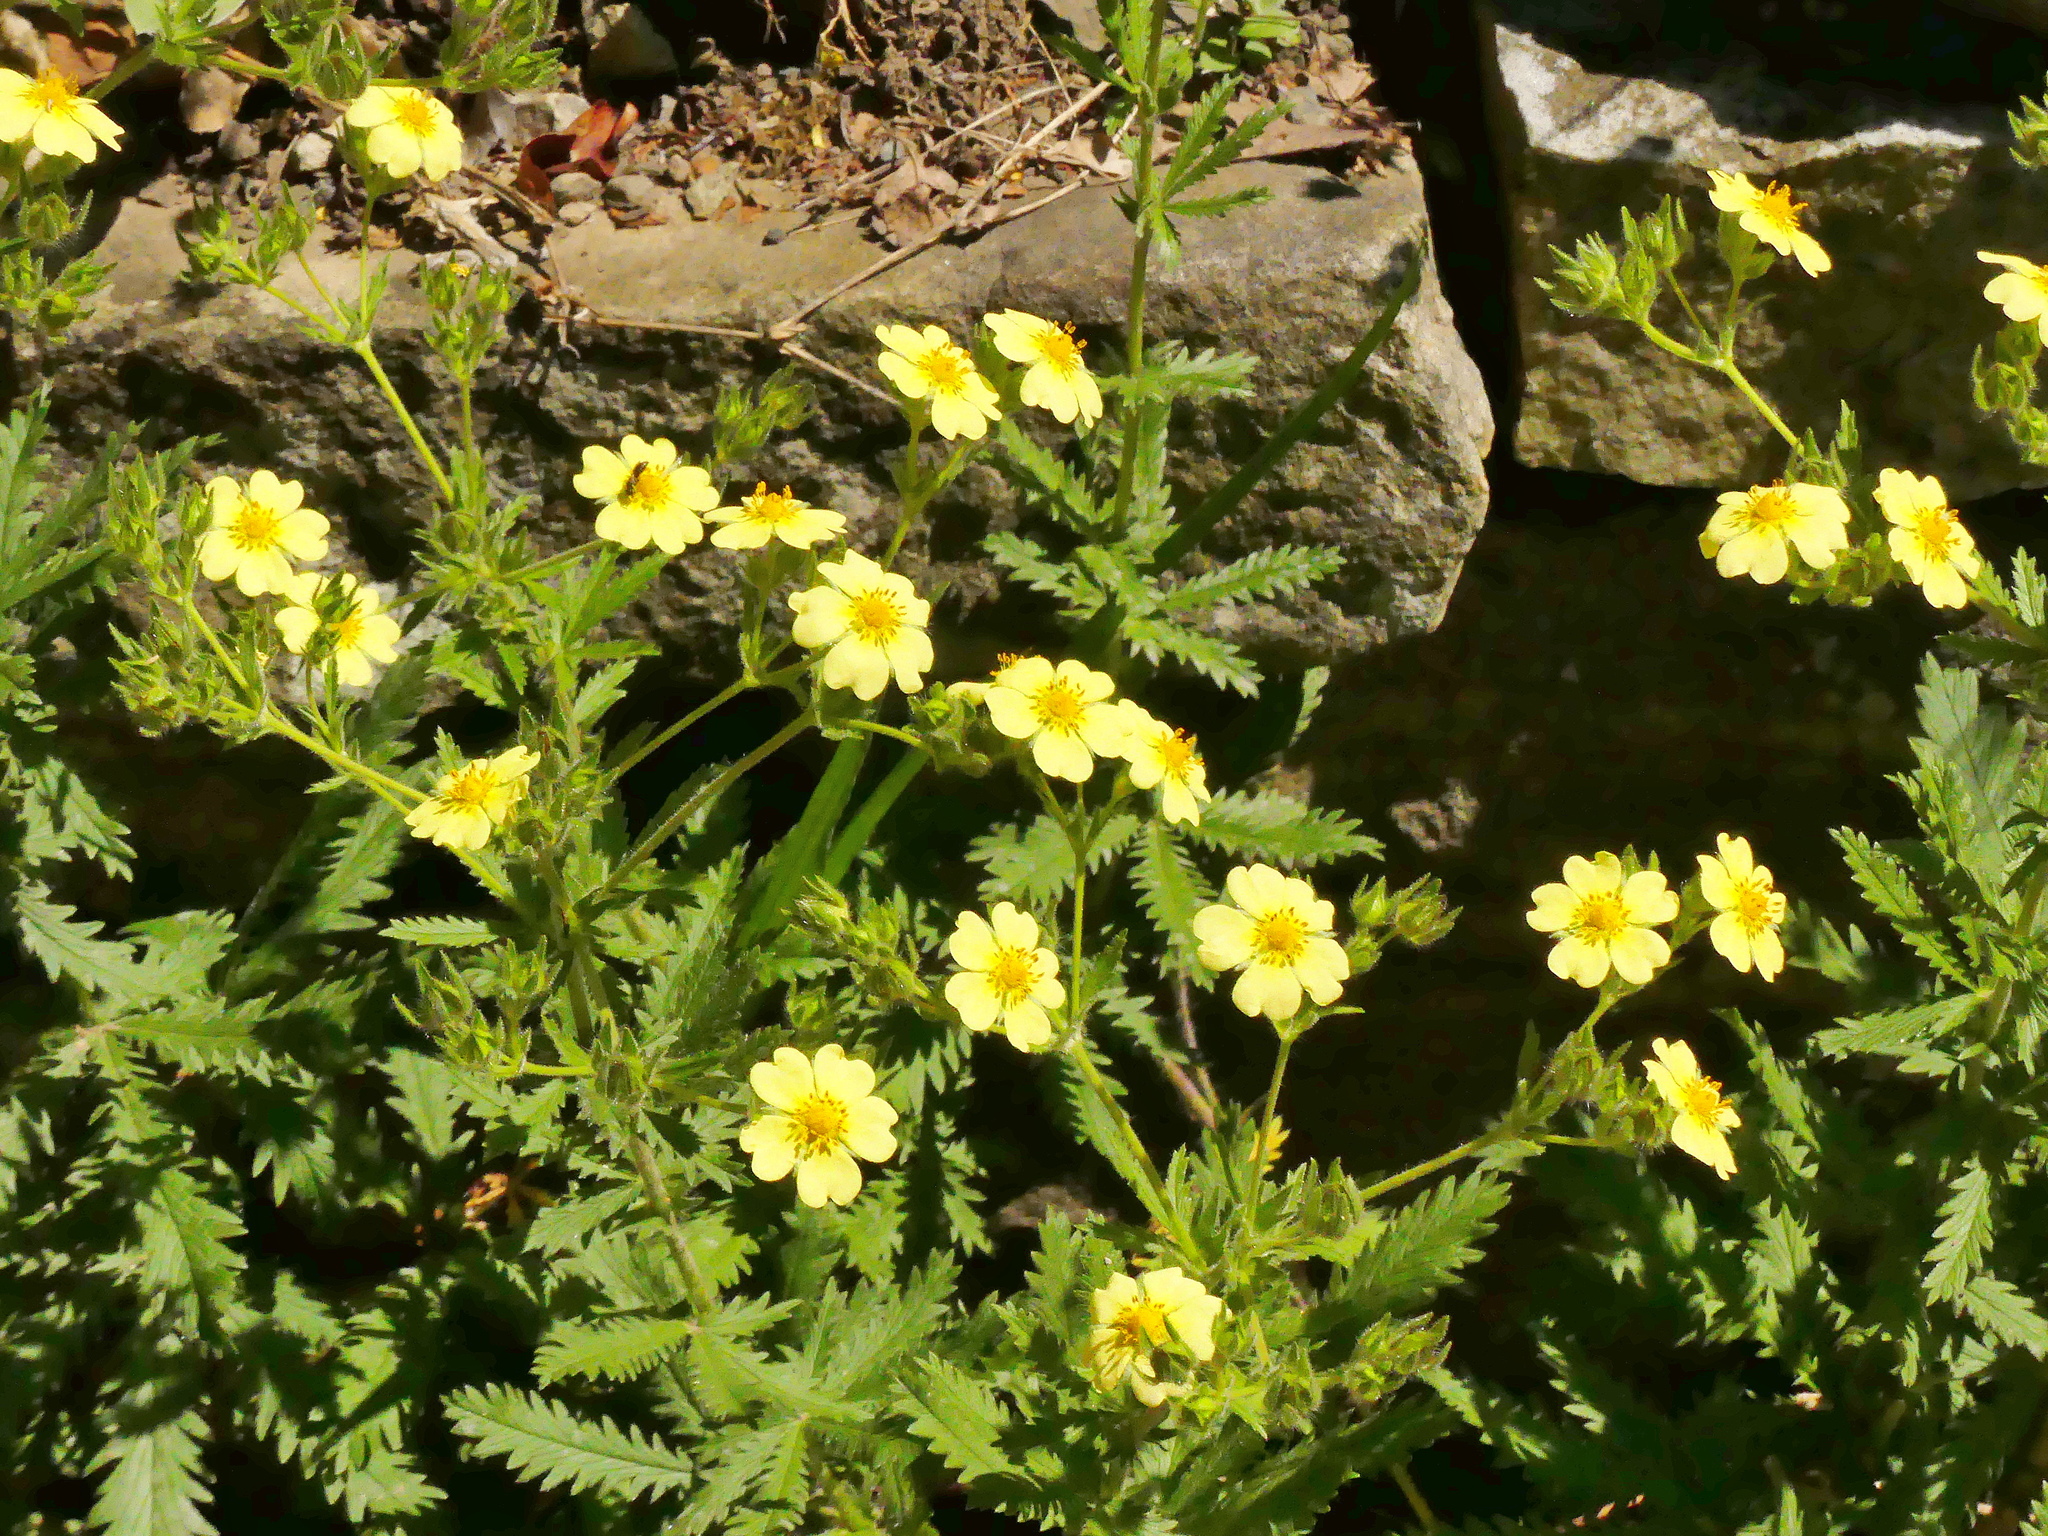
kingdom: Plantae
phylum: Tracheophyta
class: Magnoliopsida
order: Rosales
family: Rosaceae
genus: Potentilla
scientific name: Potentilla recta
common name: Sulphur cinquefoil
